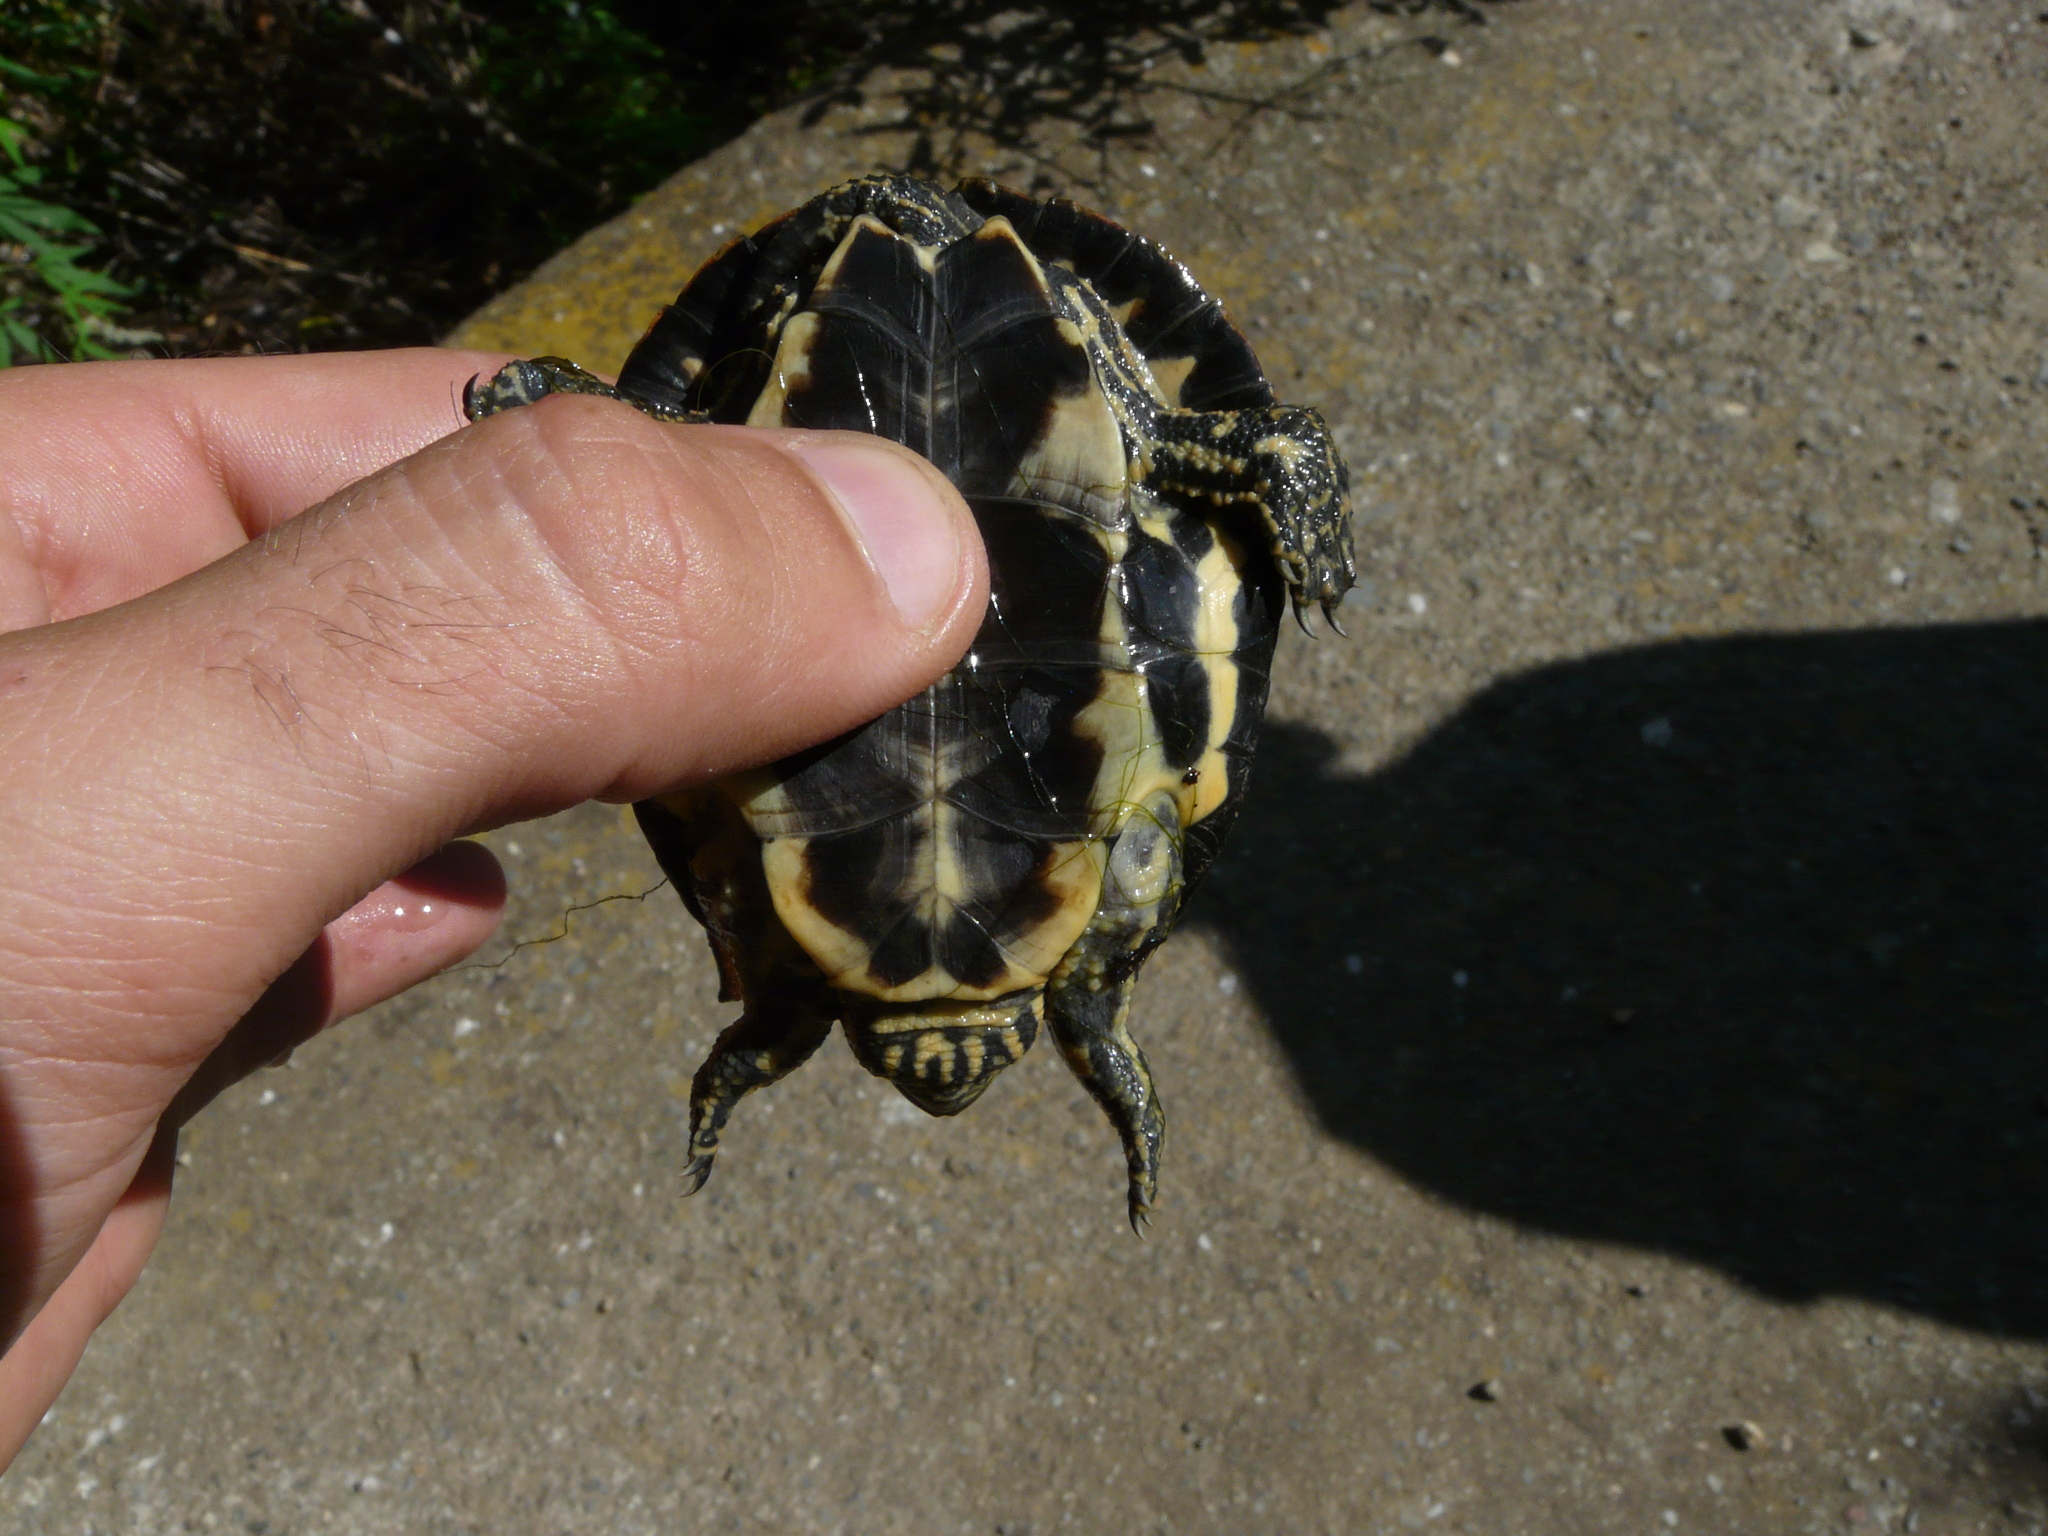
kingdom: Animalia
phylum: Chordata
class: Testudines
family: Geoemydidae
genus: Mauremys
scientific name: Mauremys leprosa
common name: Mediterranean pond turtle
